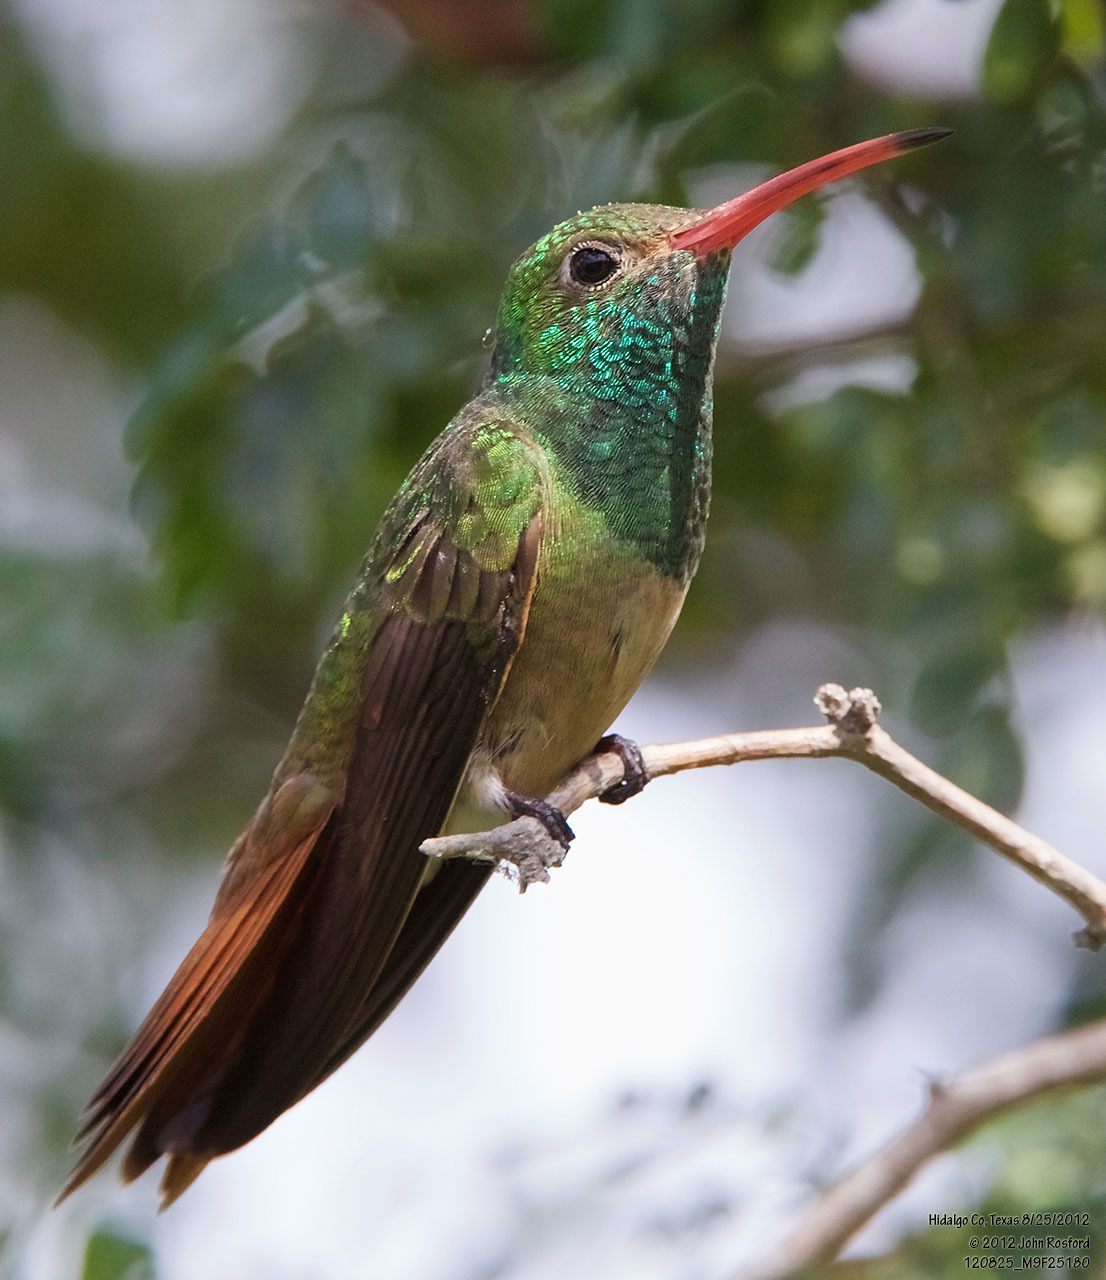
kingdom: Animalia
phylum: Chordata
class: Aves
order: Apodiformes
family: Trochilidae
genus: Amazilia
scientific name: Amazilia yucatanensis
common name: Buff-bellied hummingbird
